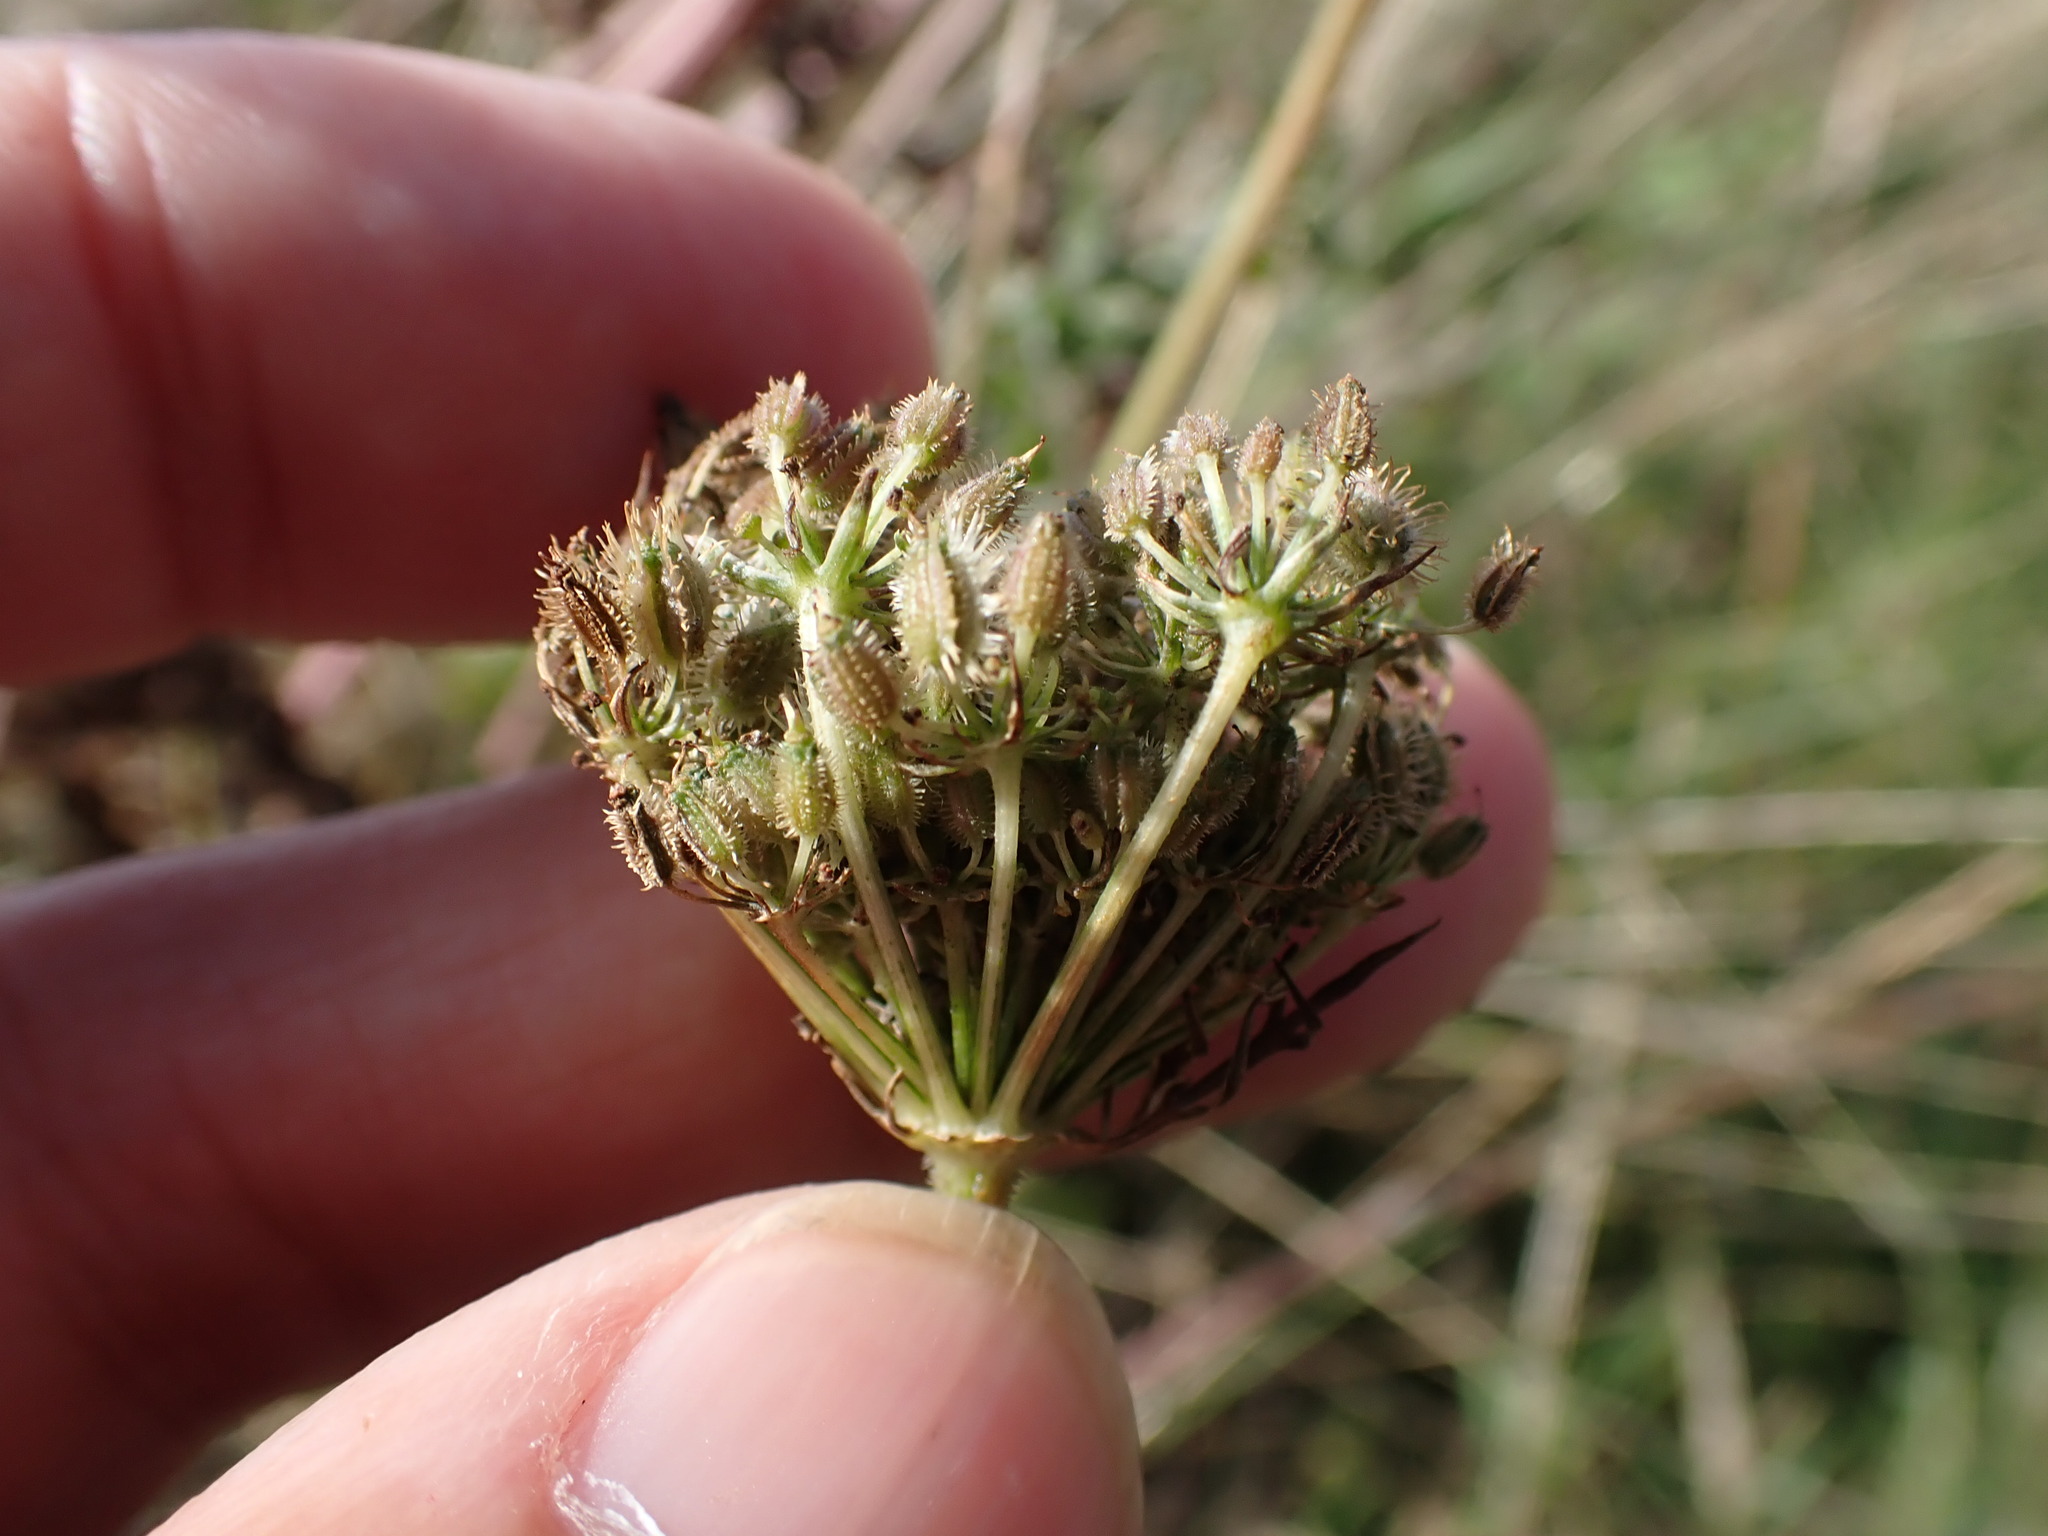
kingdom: Plantae
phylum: Tracheophyta
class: Magnoliopsida
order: Apiales
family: Apiaceae
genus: Daucus
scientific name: Daucus carota
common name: Wild carrot
